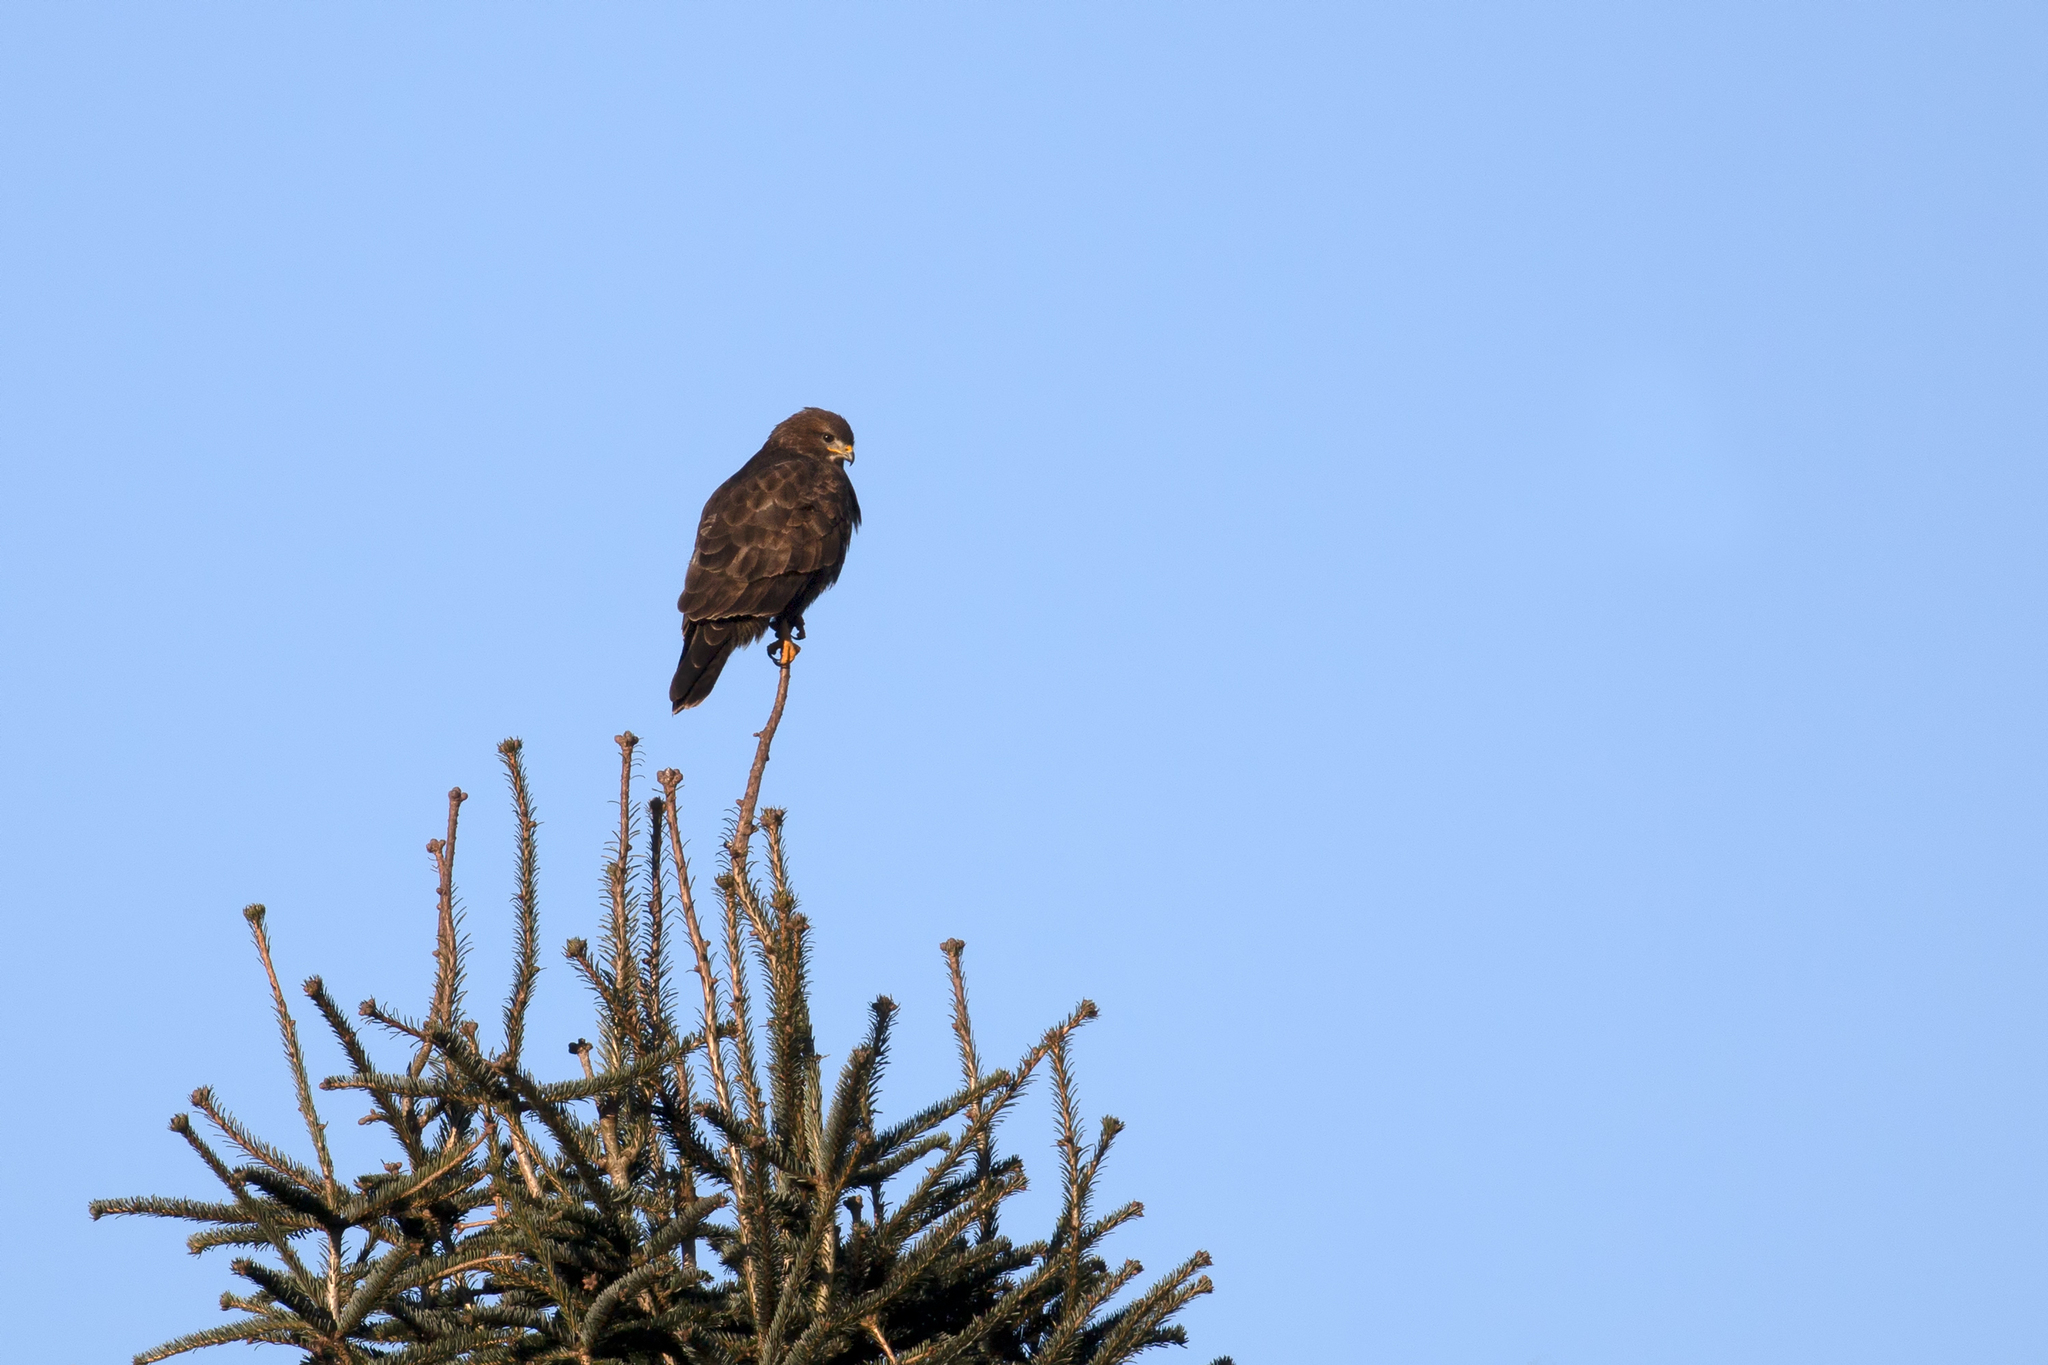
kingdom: Animalia
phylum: Chordata
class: Aves
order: Accipitriformes
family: Accipitridae
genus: Buteo
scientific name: Buteo buteo
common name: Common buzzard
